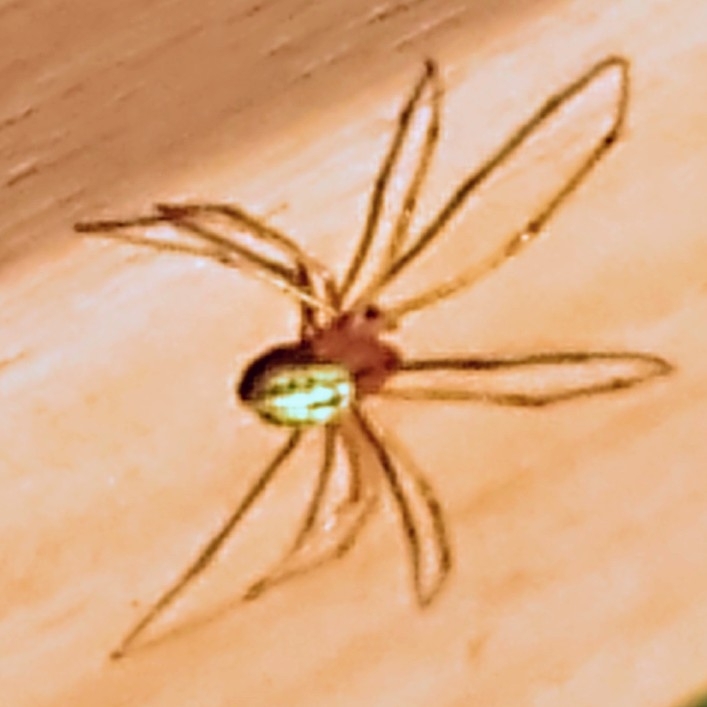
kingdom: Animalia
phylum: Arthropoda
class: Arachnida
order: Araneae
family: Theridiidae
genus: Enoplognatha
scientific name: Enoplognatha ovata
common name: Common candy-striped spider
